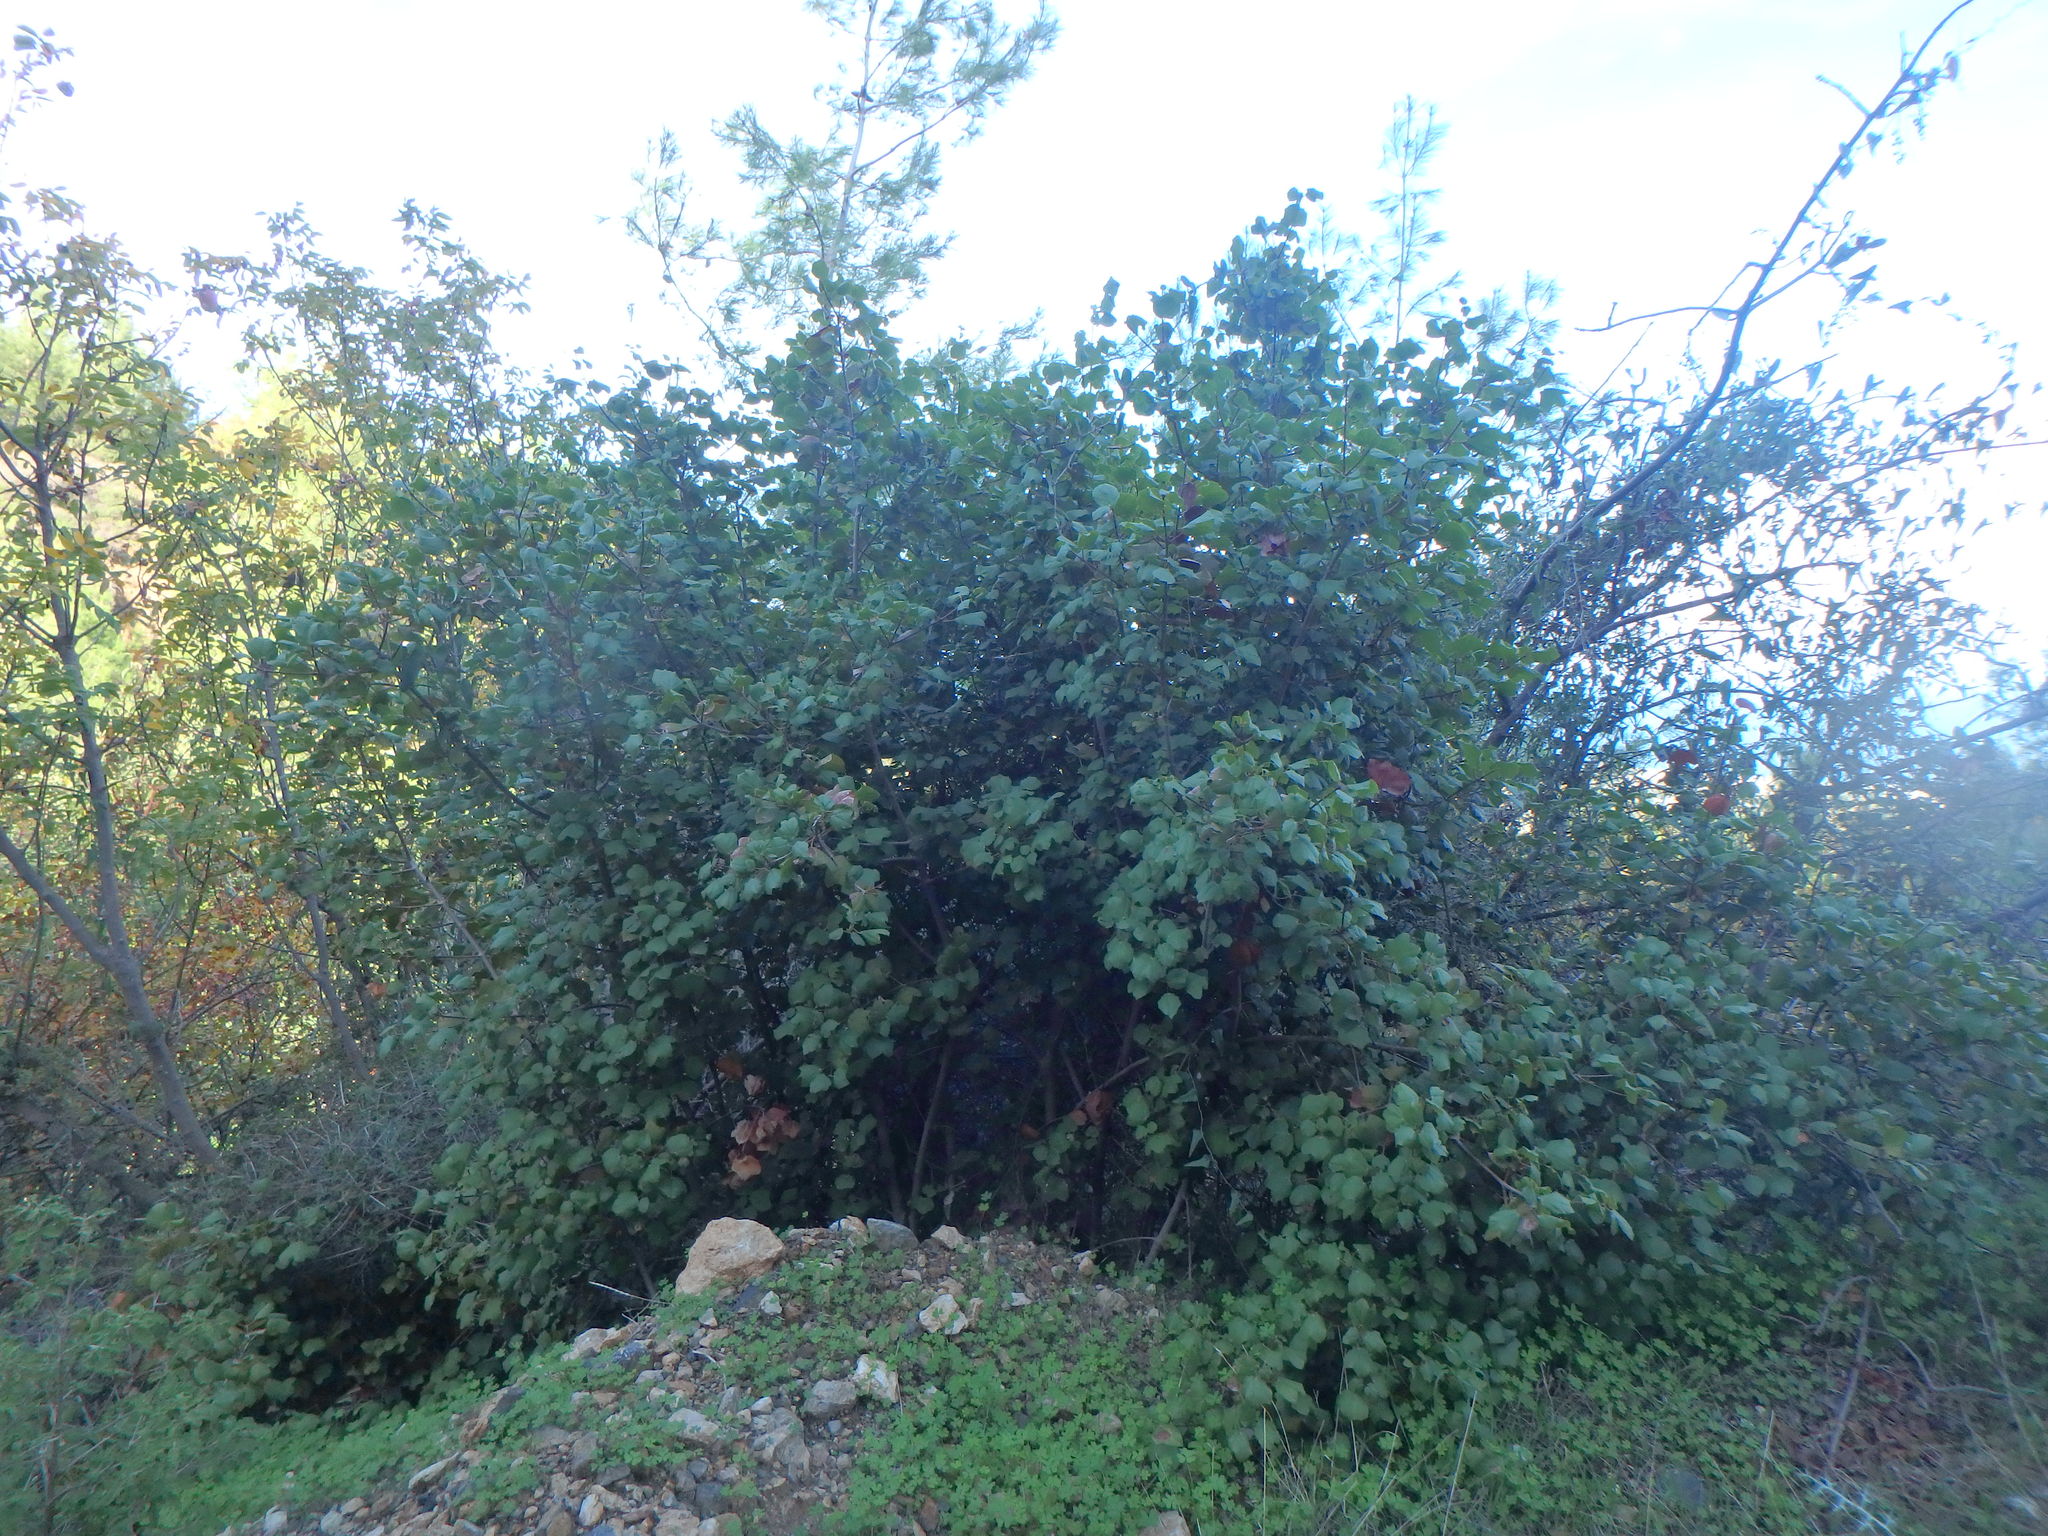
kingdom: Plantae
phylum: Tracheophyta
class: Magnoliopsida
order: Sapindales
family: Sapindaceae
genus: Acer
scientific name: Acer obtusifolium
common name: Cyprus maple
